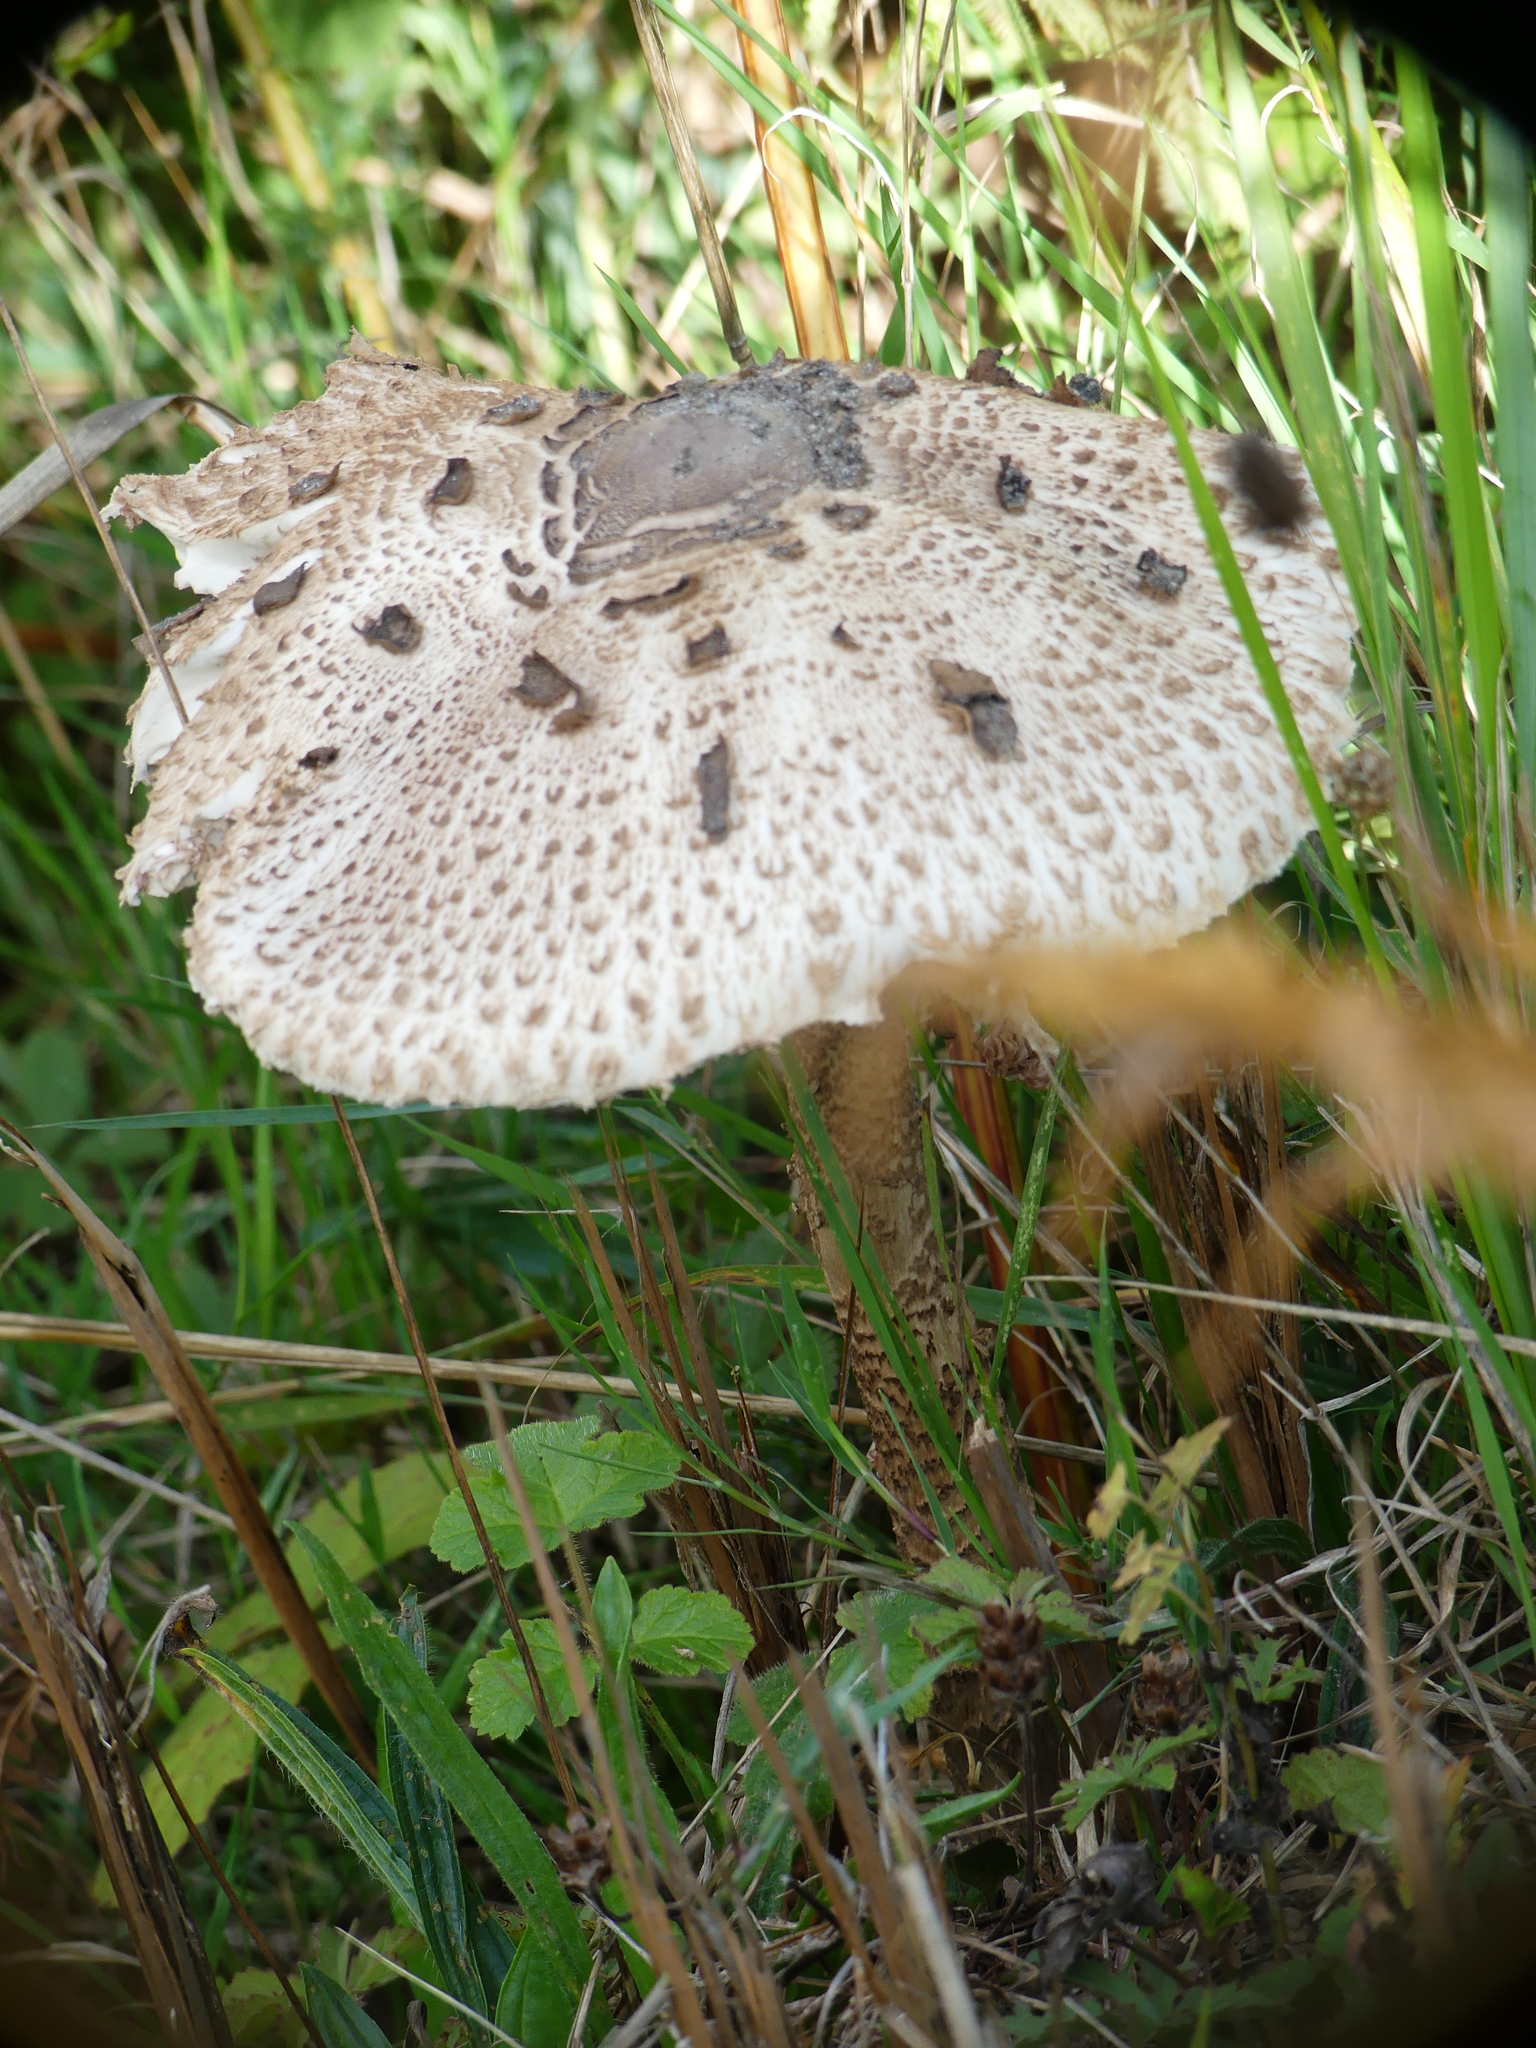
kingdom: Fungi
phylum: Basidiomycota
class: Agaricomycetes
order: Agaricales
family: Agaricaceae
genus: Macrolepiota
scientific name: Macrolepiota procera
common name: Parasol
